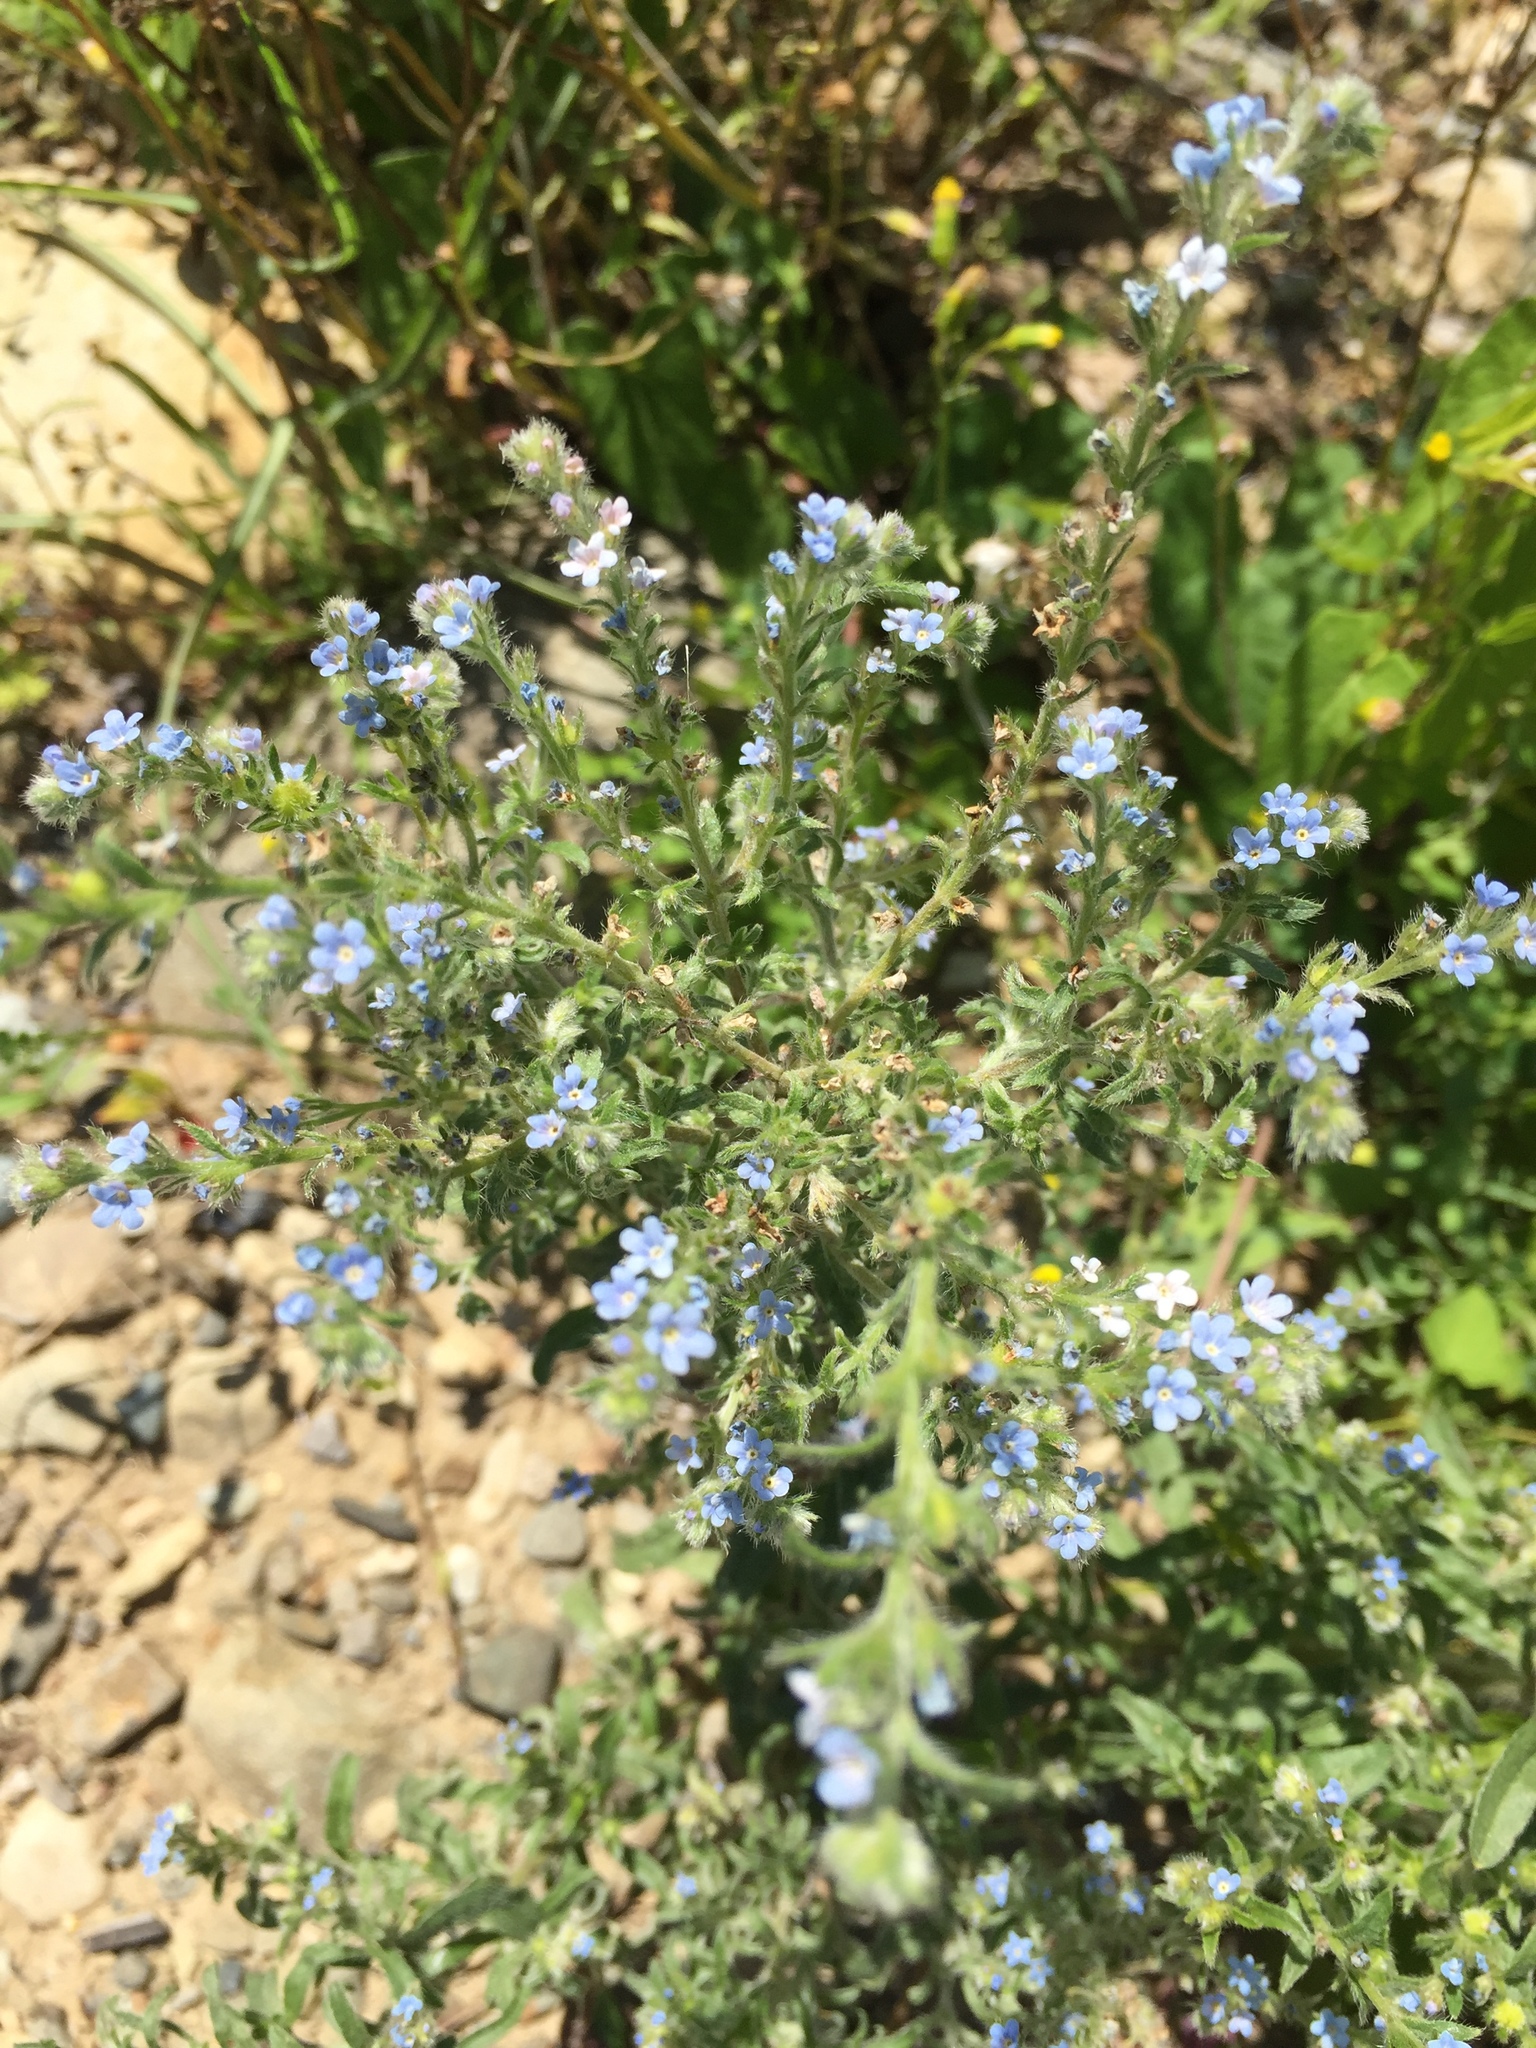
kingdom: Plantae
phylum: Tracheophyta
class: Magnoliopsida
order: Boraginales
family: Boraginaceae
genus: Lappula
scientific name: Lappula squarrosa
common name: European stickseed
